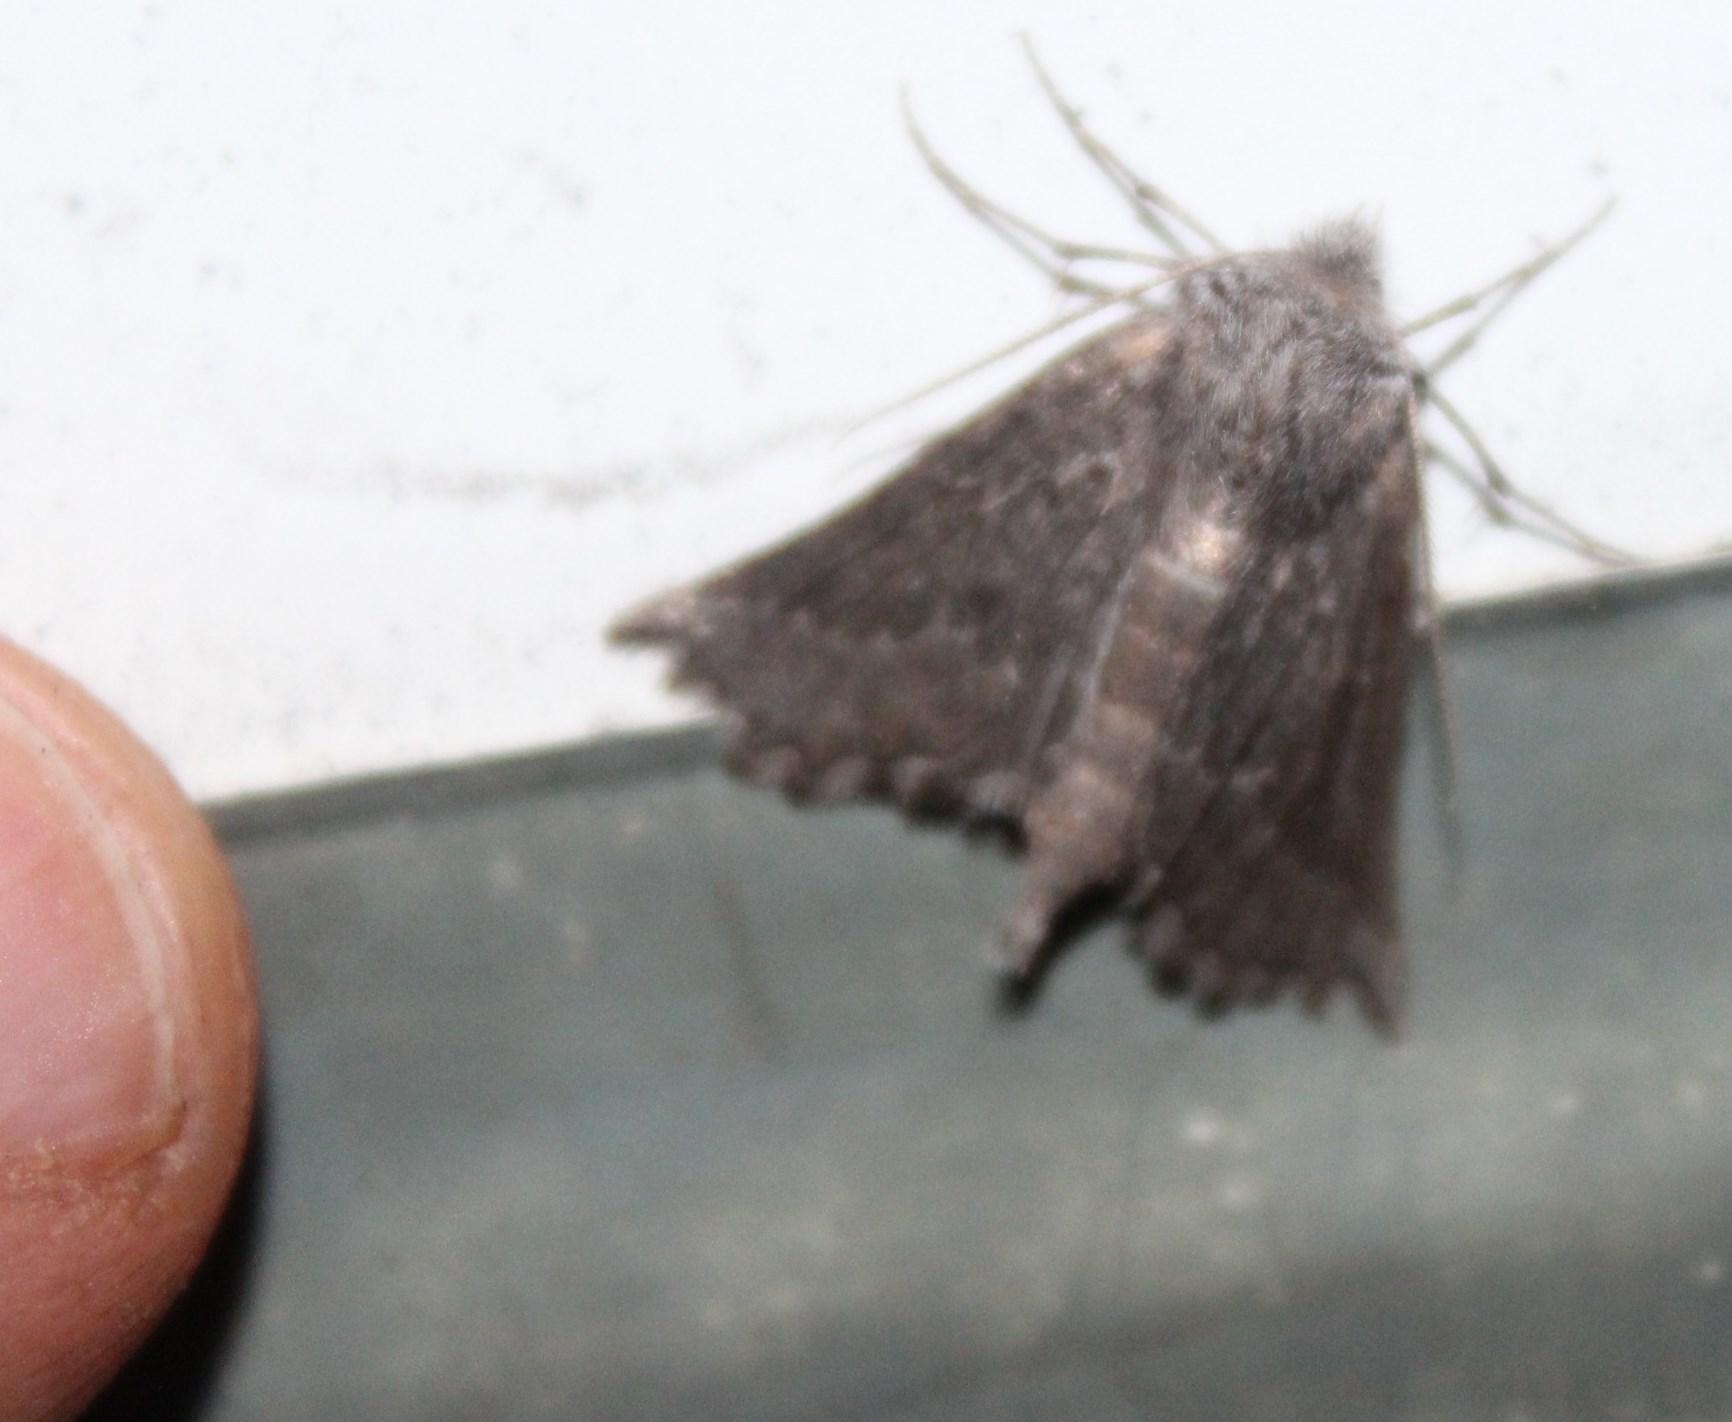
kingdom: Animalia
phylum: Arthropoda
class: Insecta
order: Lepidoptera
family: Geometridae
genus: Axiodes
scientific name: Axiodes rufigrisea
